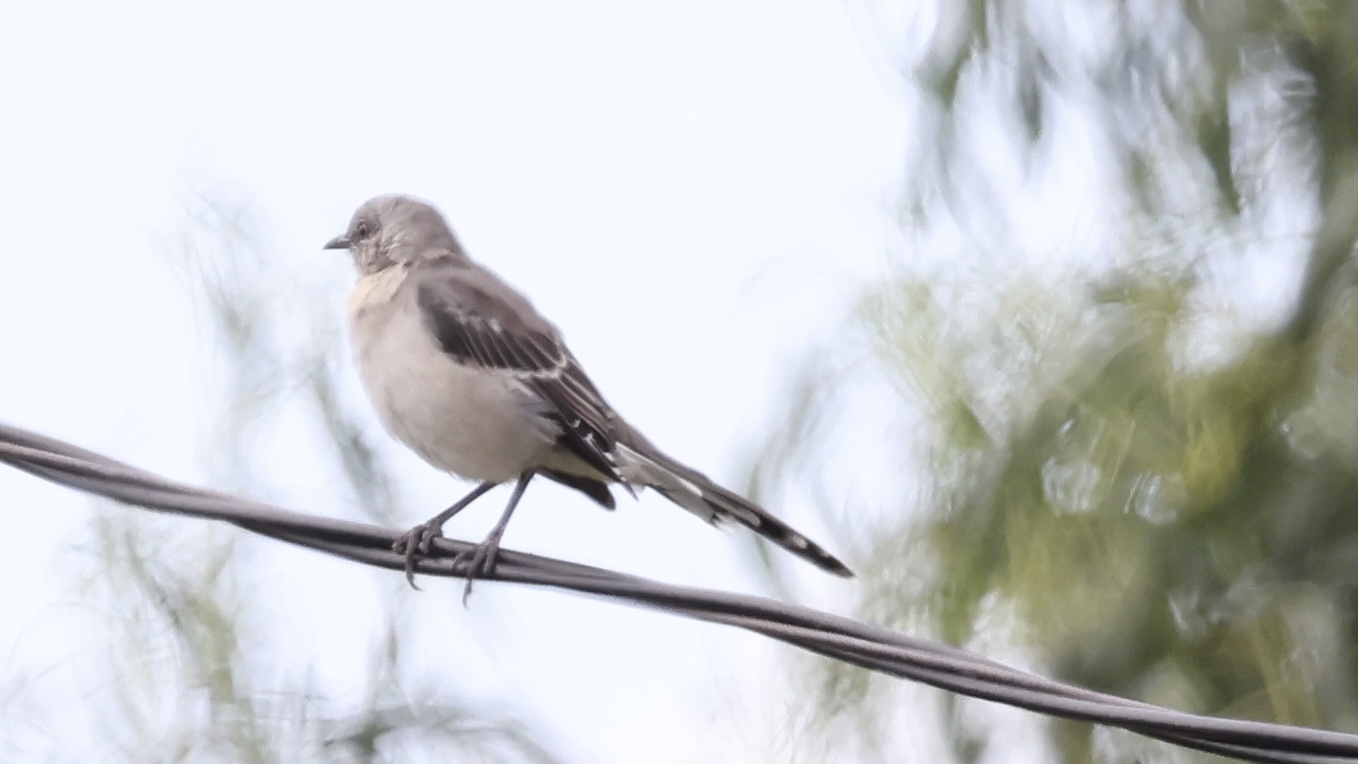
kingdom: Animalia
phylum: Chordata
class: Aves
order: Passeriformes
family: Mimidae
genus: Mimus
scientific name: Mimus polyglottos
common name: Northern mockingbird
